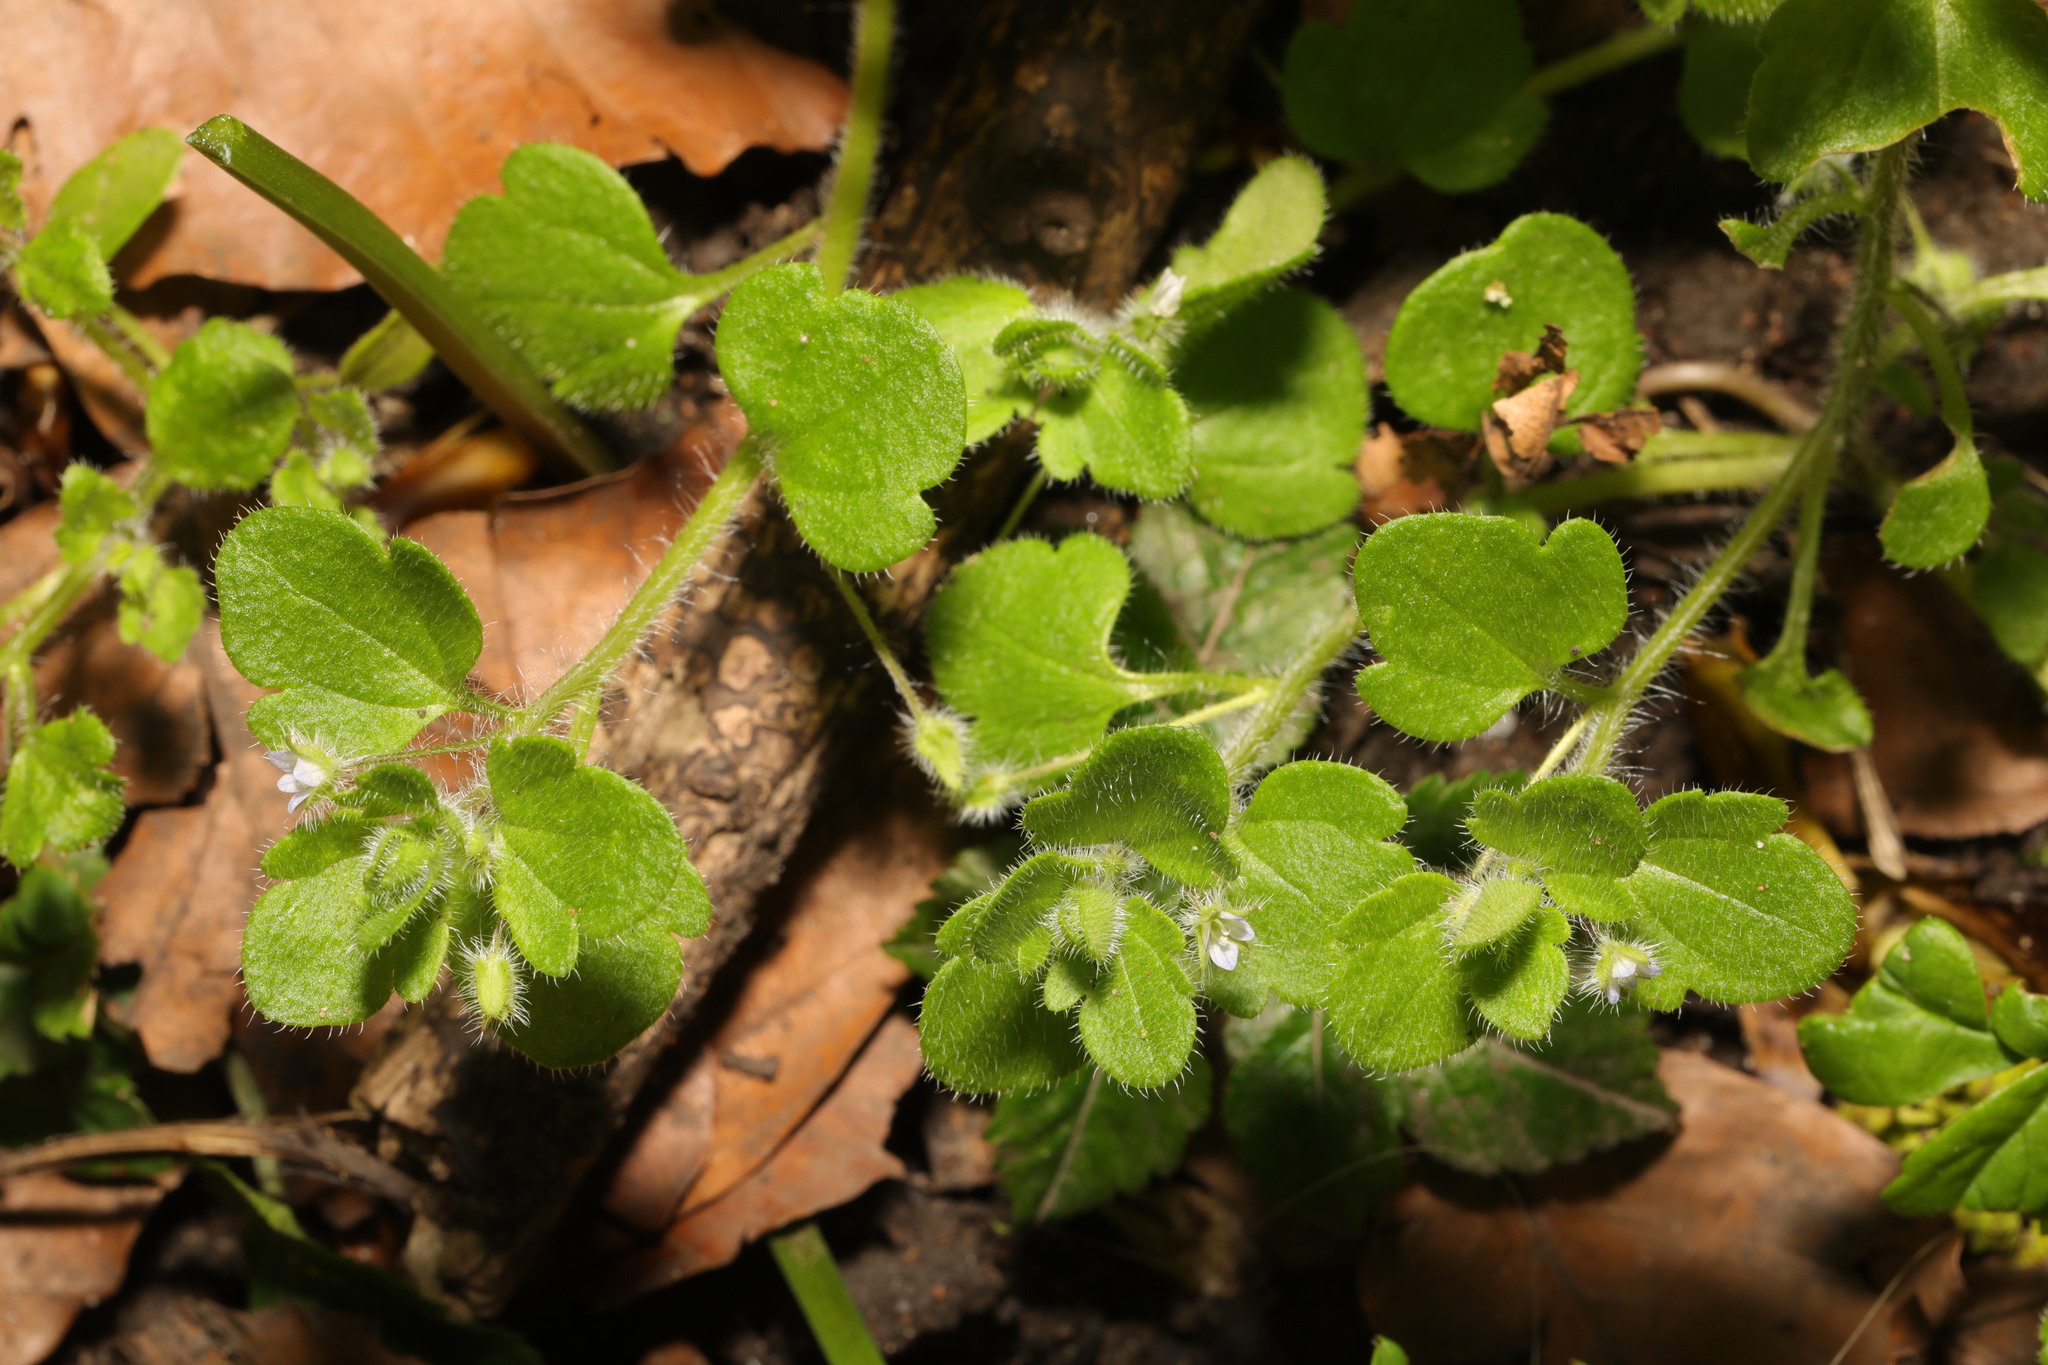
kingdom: Plantae
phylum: Tracheophyta
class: Magnoliopsida
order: Lamiales
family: Plantaginaceae
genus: Veronica
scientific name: Veronica hederifolia
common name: Ivy-leaved speedwell
